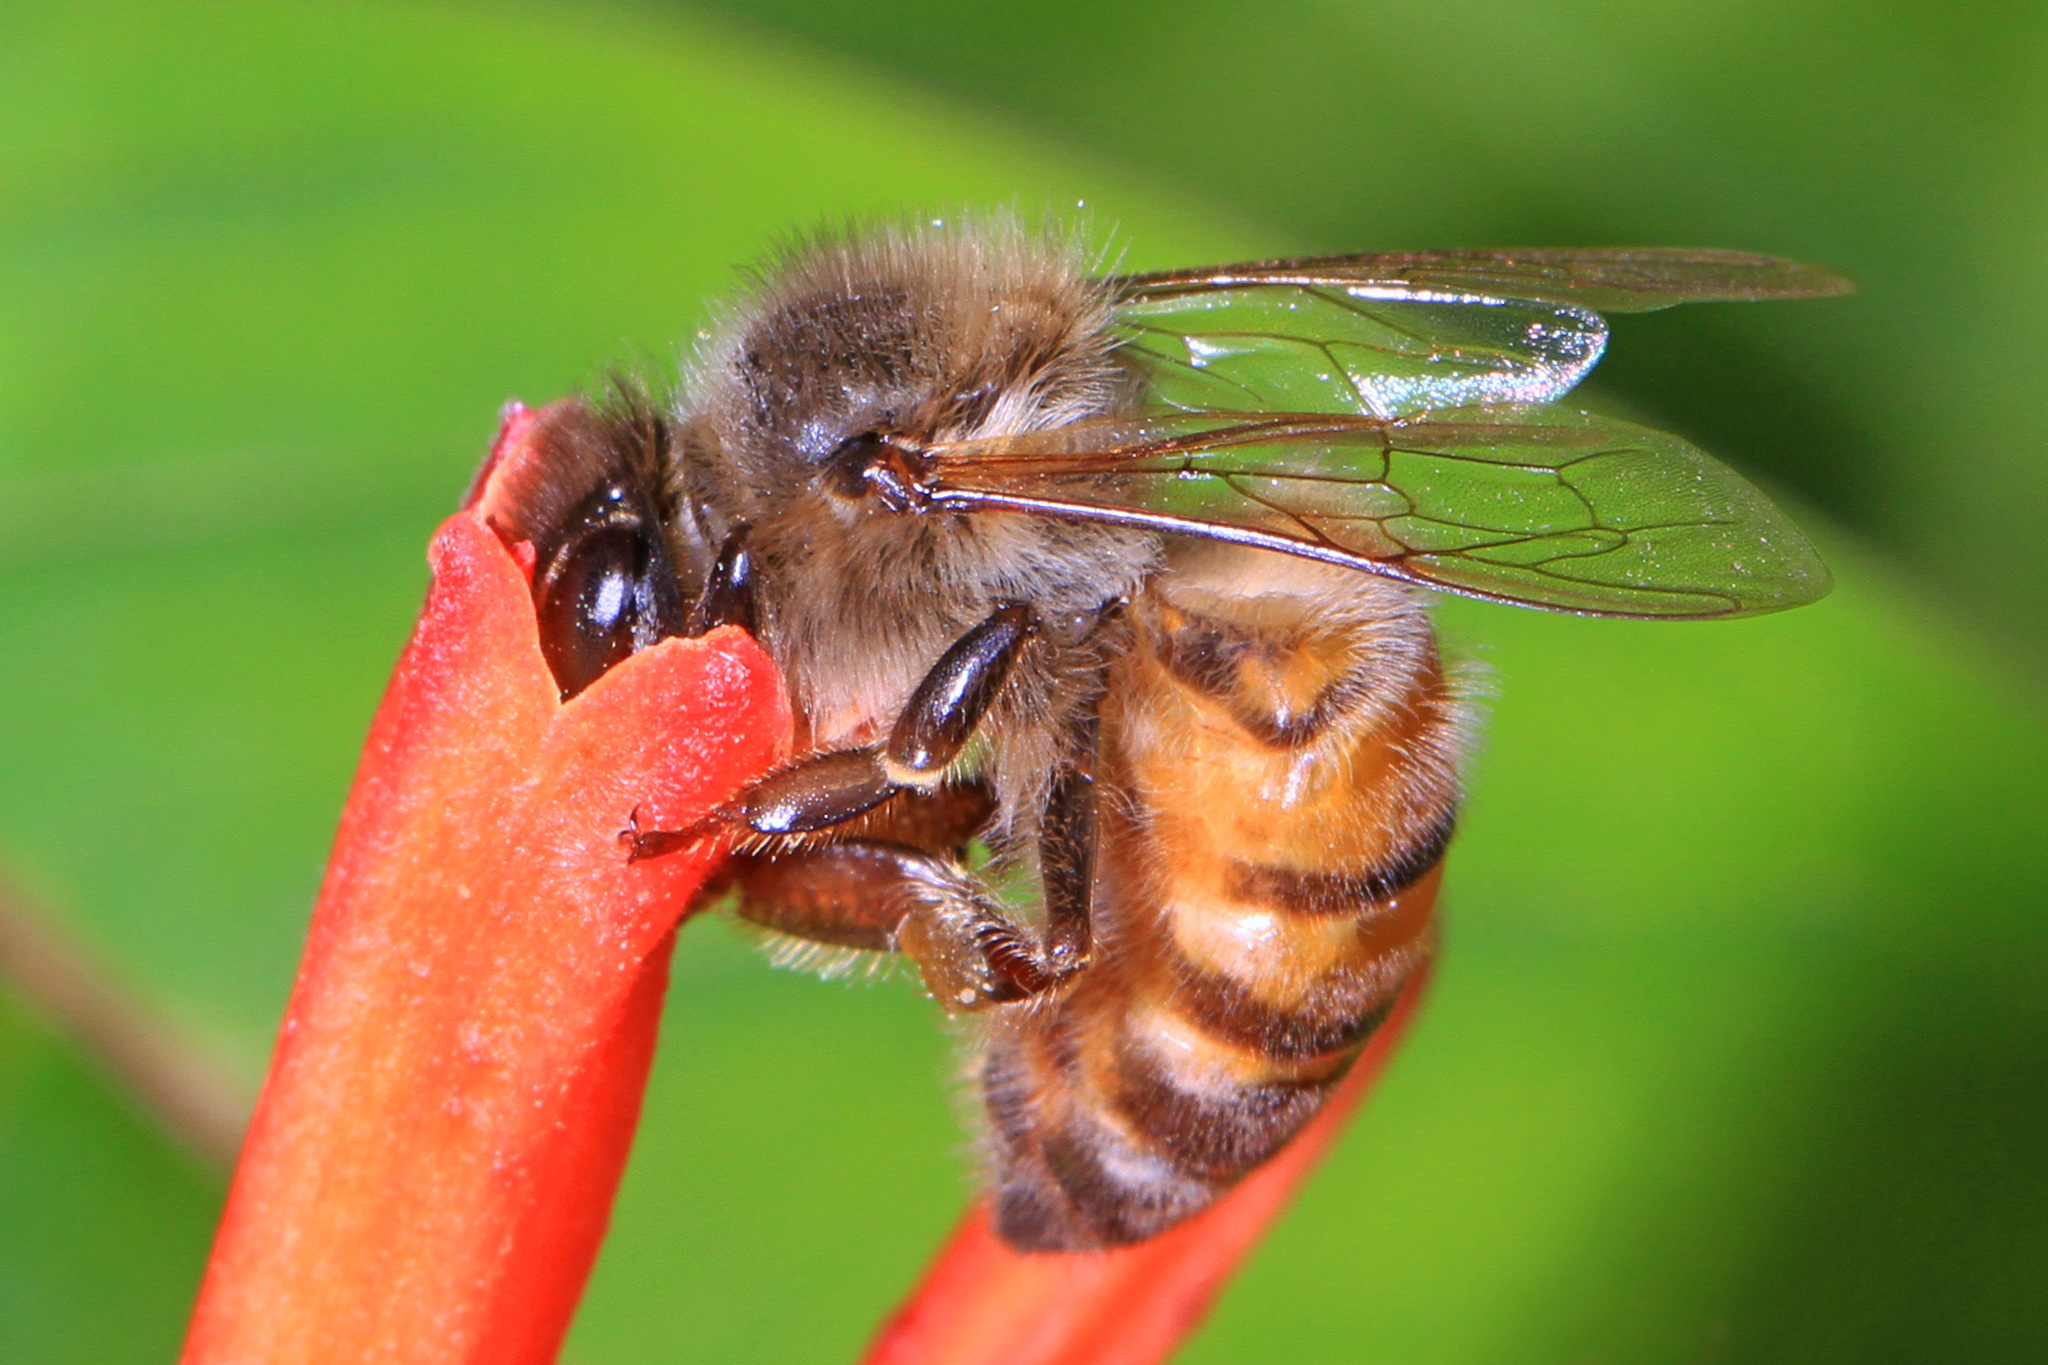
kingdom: Animalia
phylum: Arthropoda
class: Insecta
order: Hymenoptera
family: Apidae
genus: Apis
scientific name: Apis mellifera
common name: Honey bee
